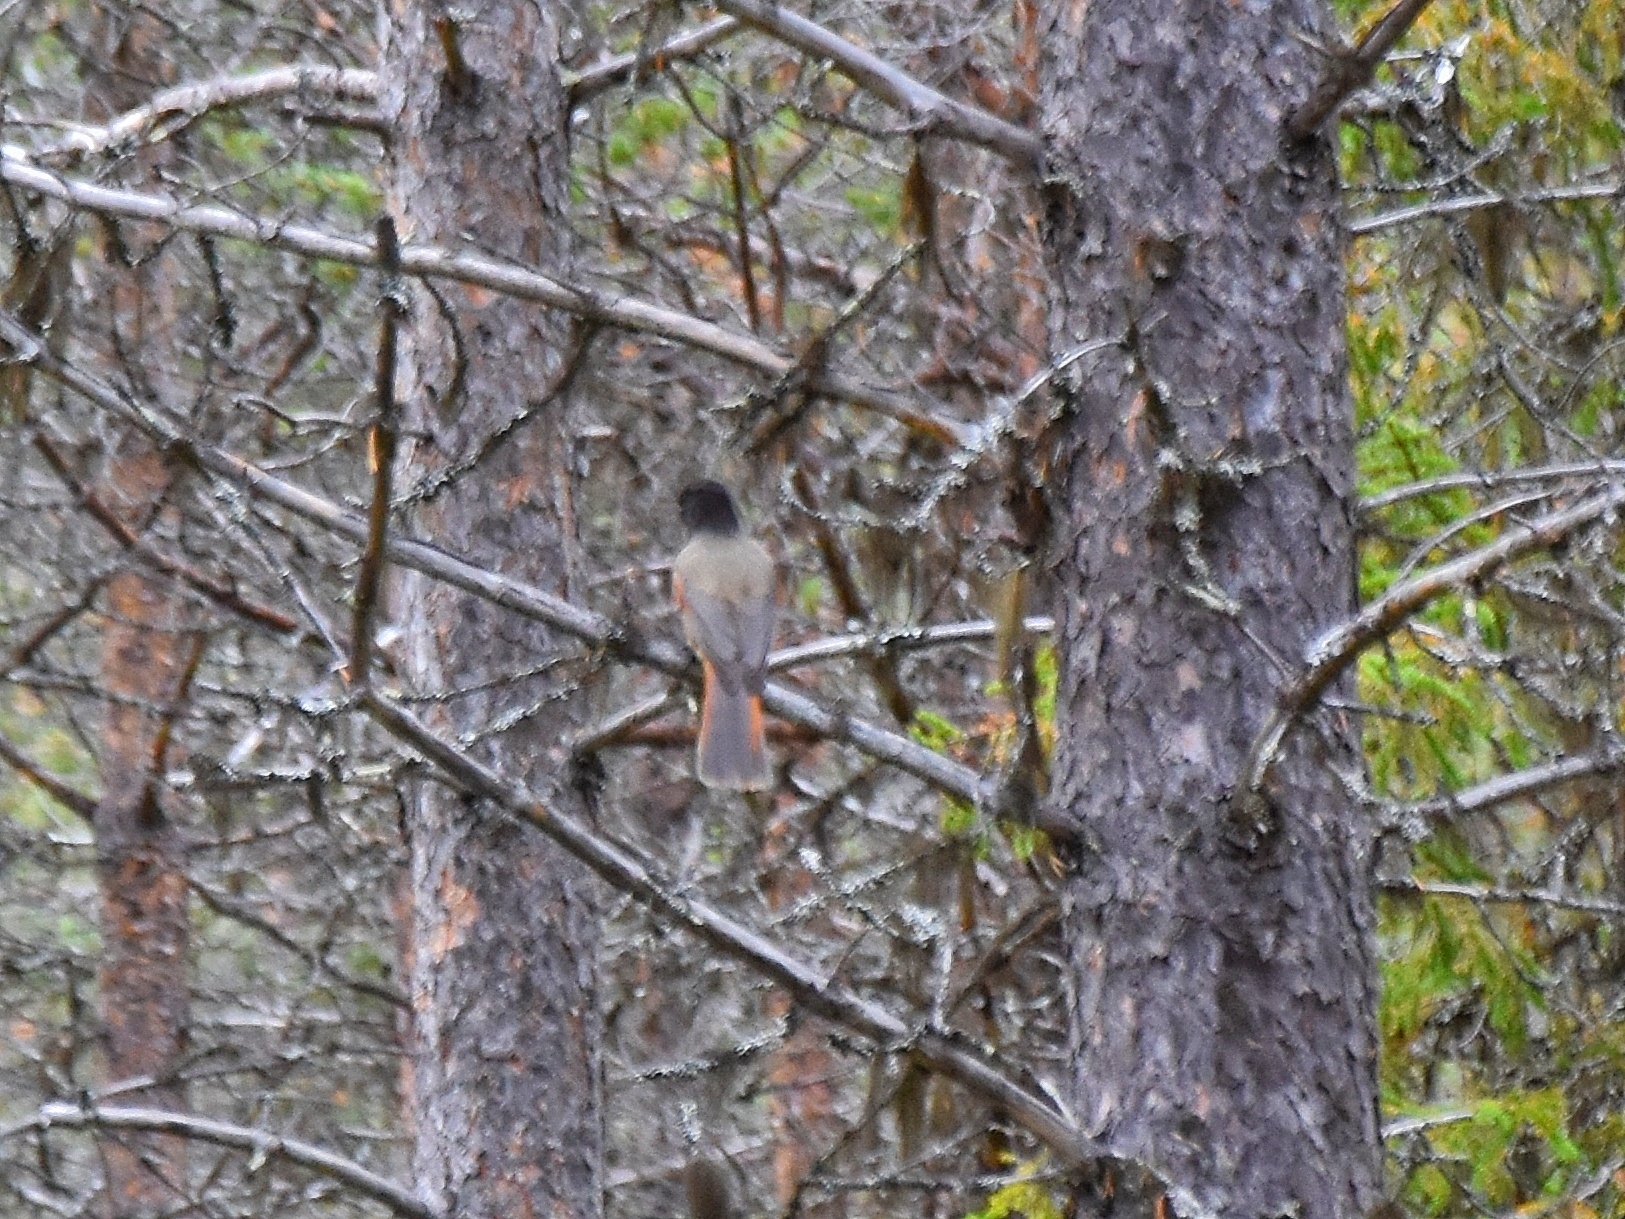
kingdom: Animalia
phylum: Chordata
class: Aves
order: Passeriformes
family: Corvidae
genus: Perisoreus
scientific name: Perisoreus infaustus
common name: Siberian jay
